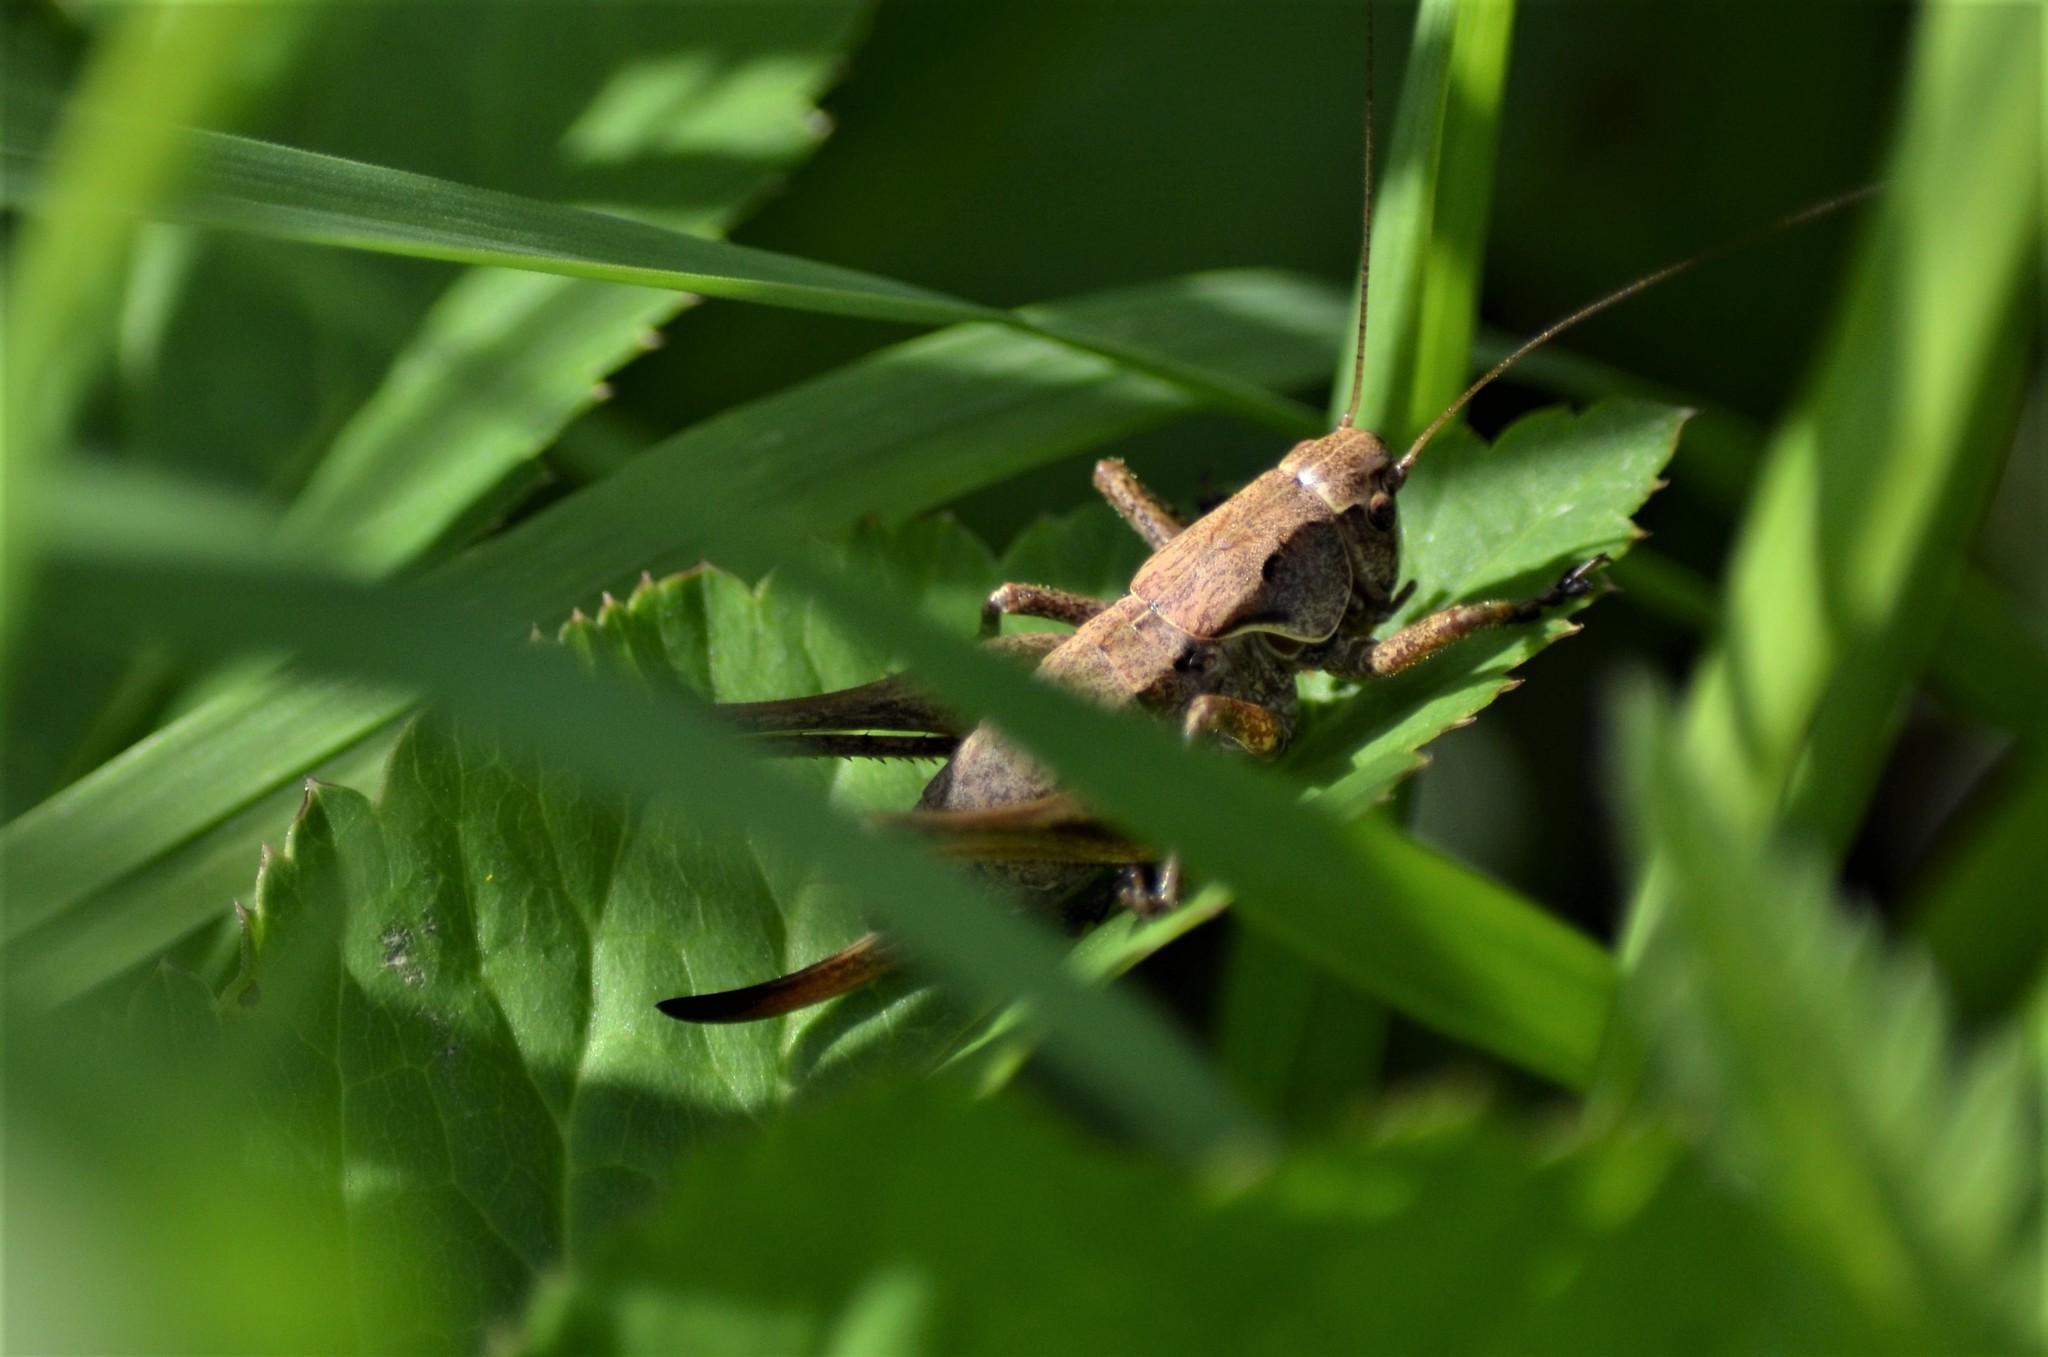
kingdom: Animalia
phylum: Arthropoda
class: Insecta
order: Orthoptera
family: Tettigoniidae
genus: Pholidoptera
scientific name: Pholidoptera griseoaptera
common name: Dark bush-cricket
